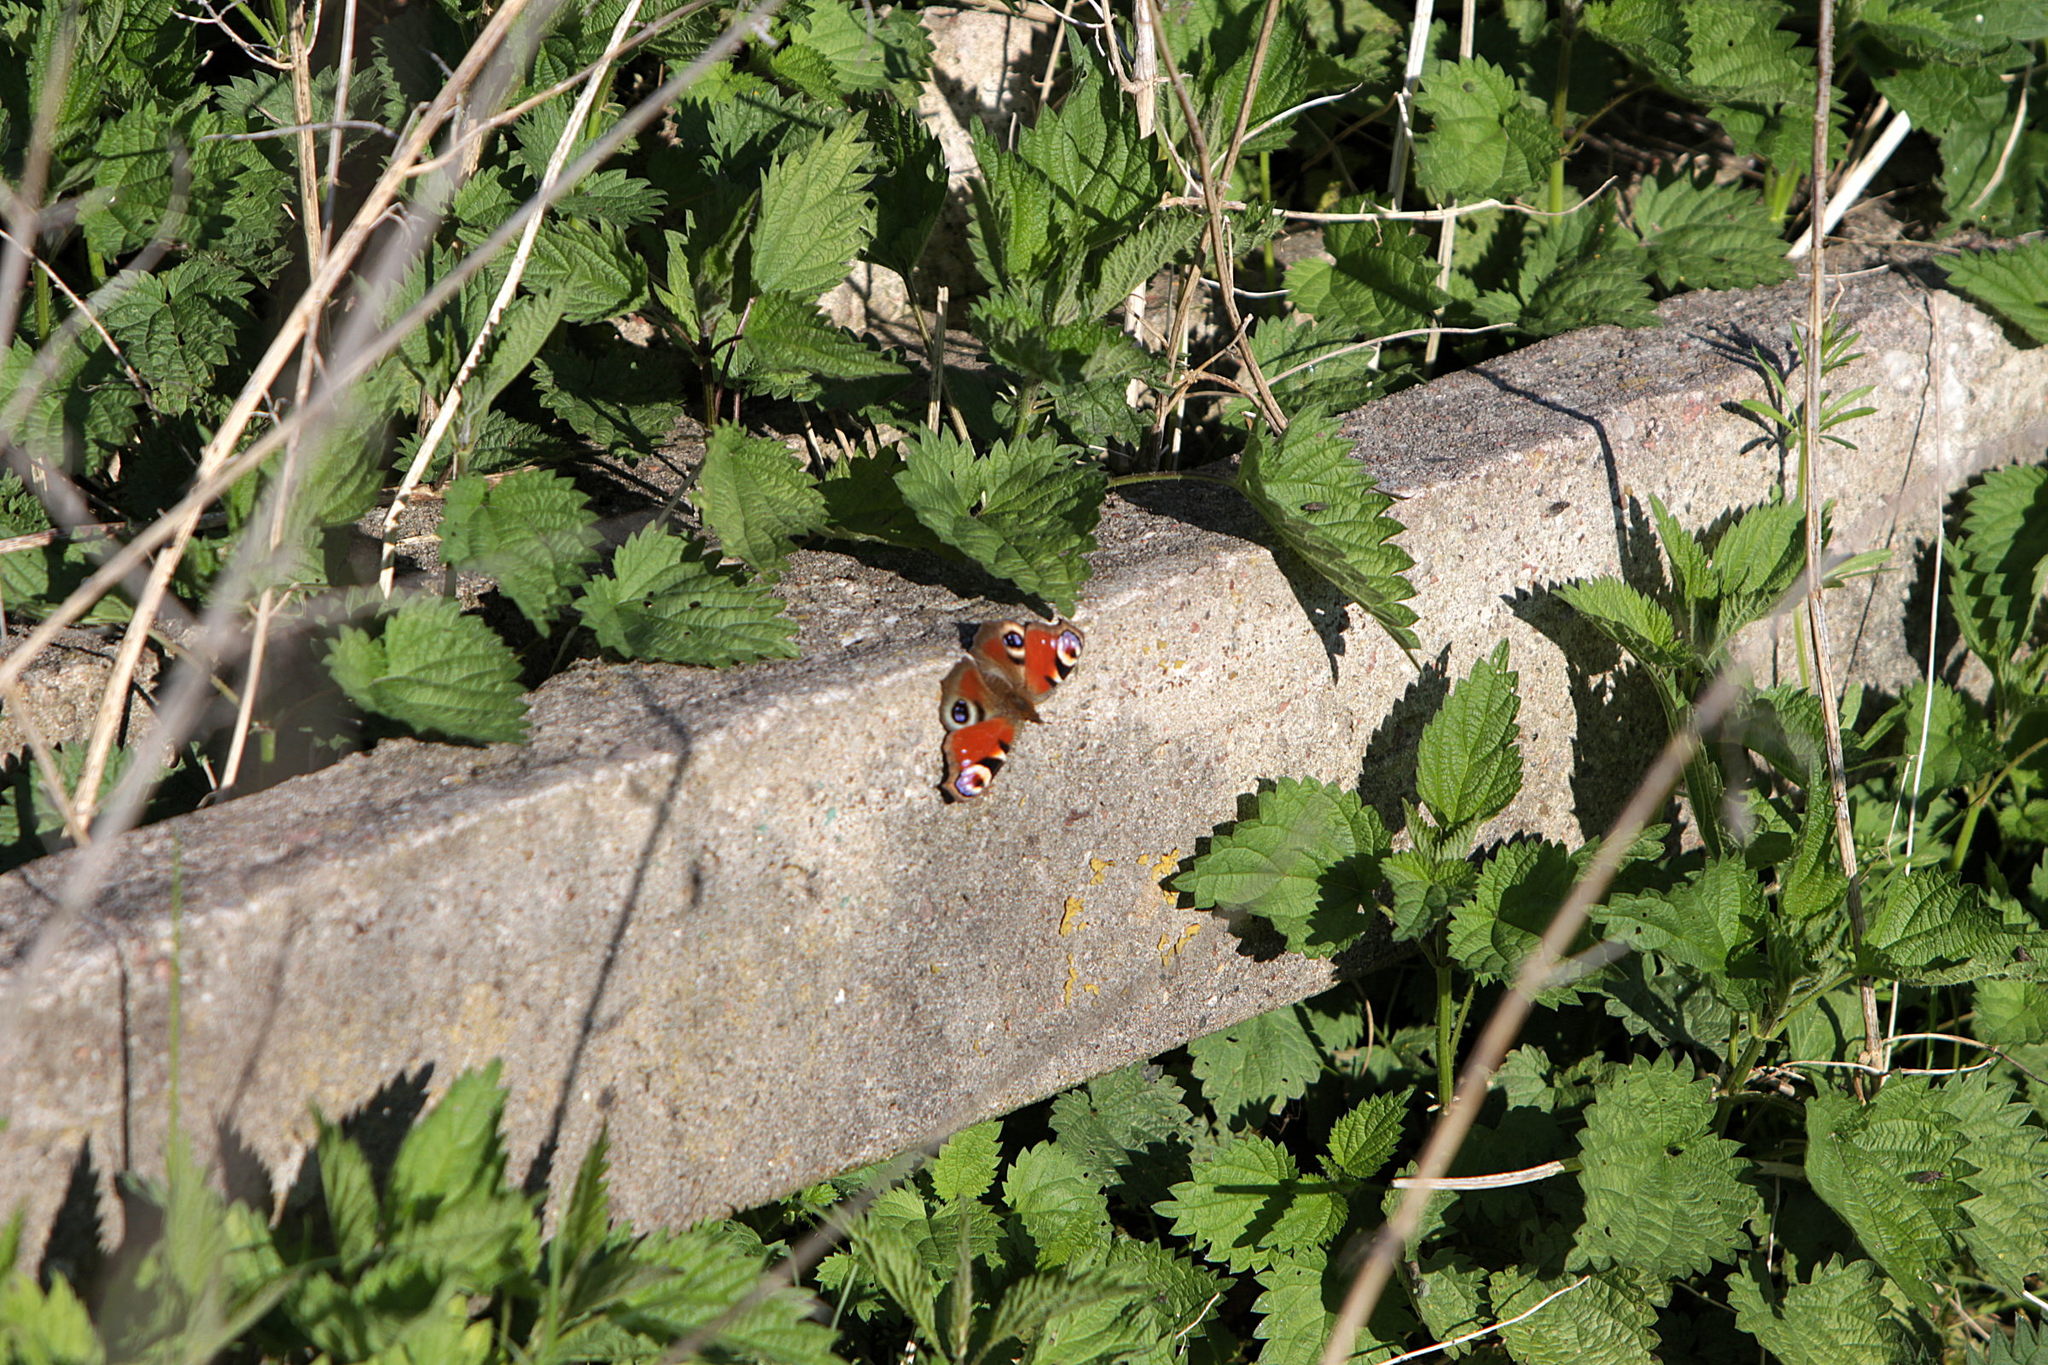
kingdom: Animalia
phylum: Arthropoda
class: Insecta
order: Lepidoptera
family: Nymphalidae
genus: Aglais
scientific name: Aglais io
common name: Peacock
